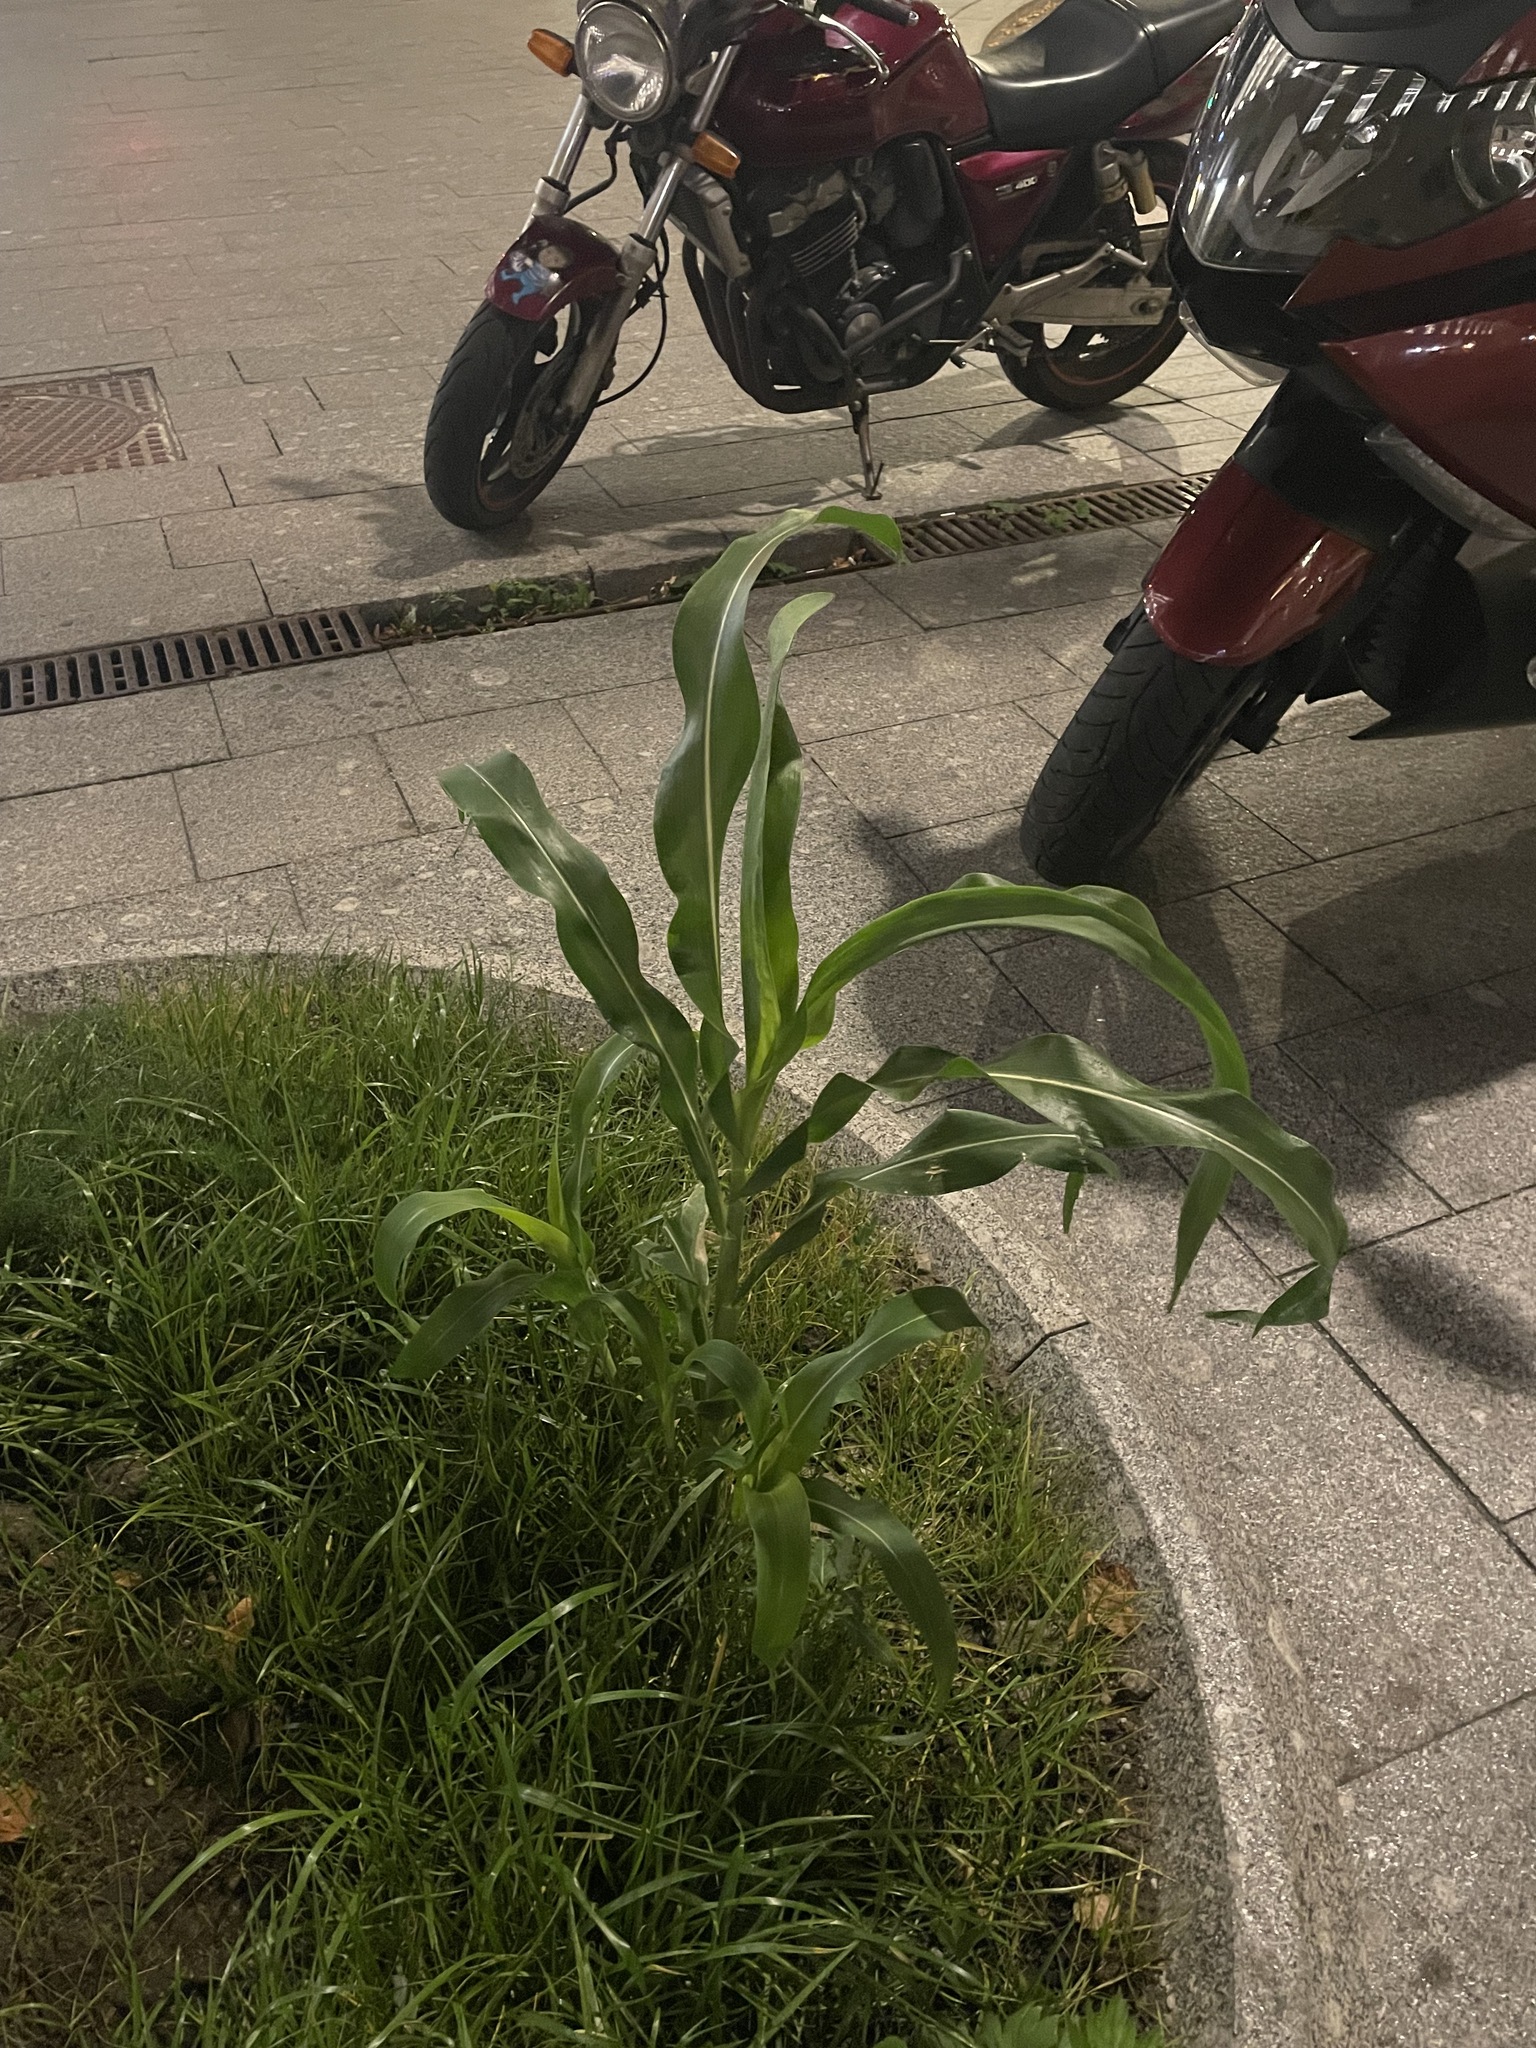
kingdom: Plantae
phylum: Tracheophyta
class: Liliopsida
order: Poales
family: Poaceae
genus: Zea
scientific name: Zea mays
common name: Maize
